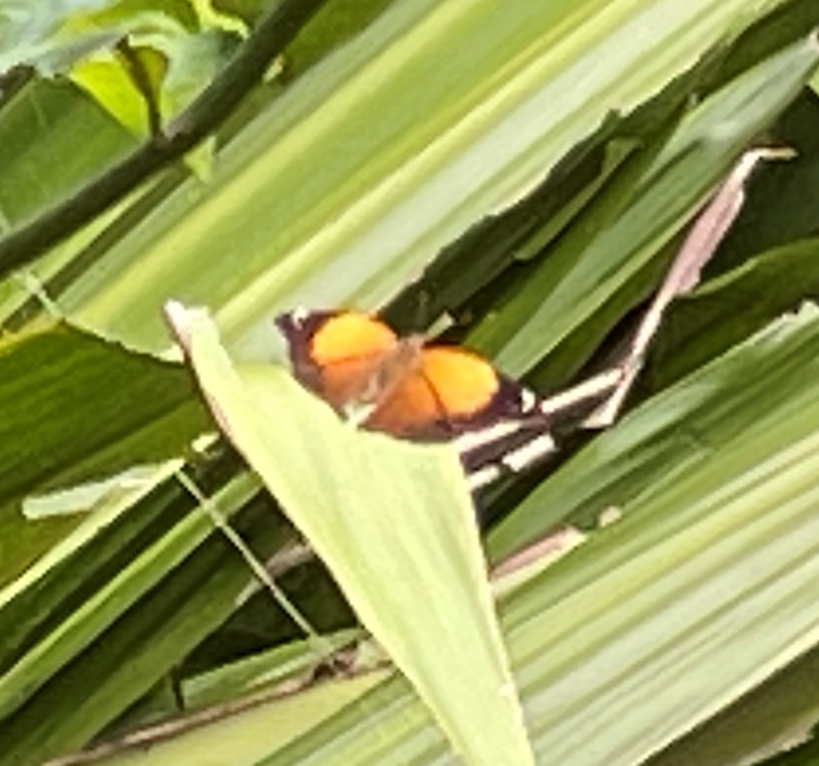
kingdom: Animalia
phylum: Arthropoda
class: Insecta
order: Lepidoptera
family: Nymphalidae
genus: Doleschallia
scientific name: Doleschallia bisaltide
